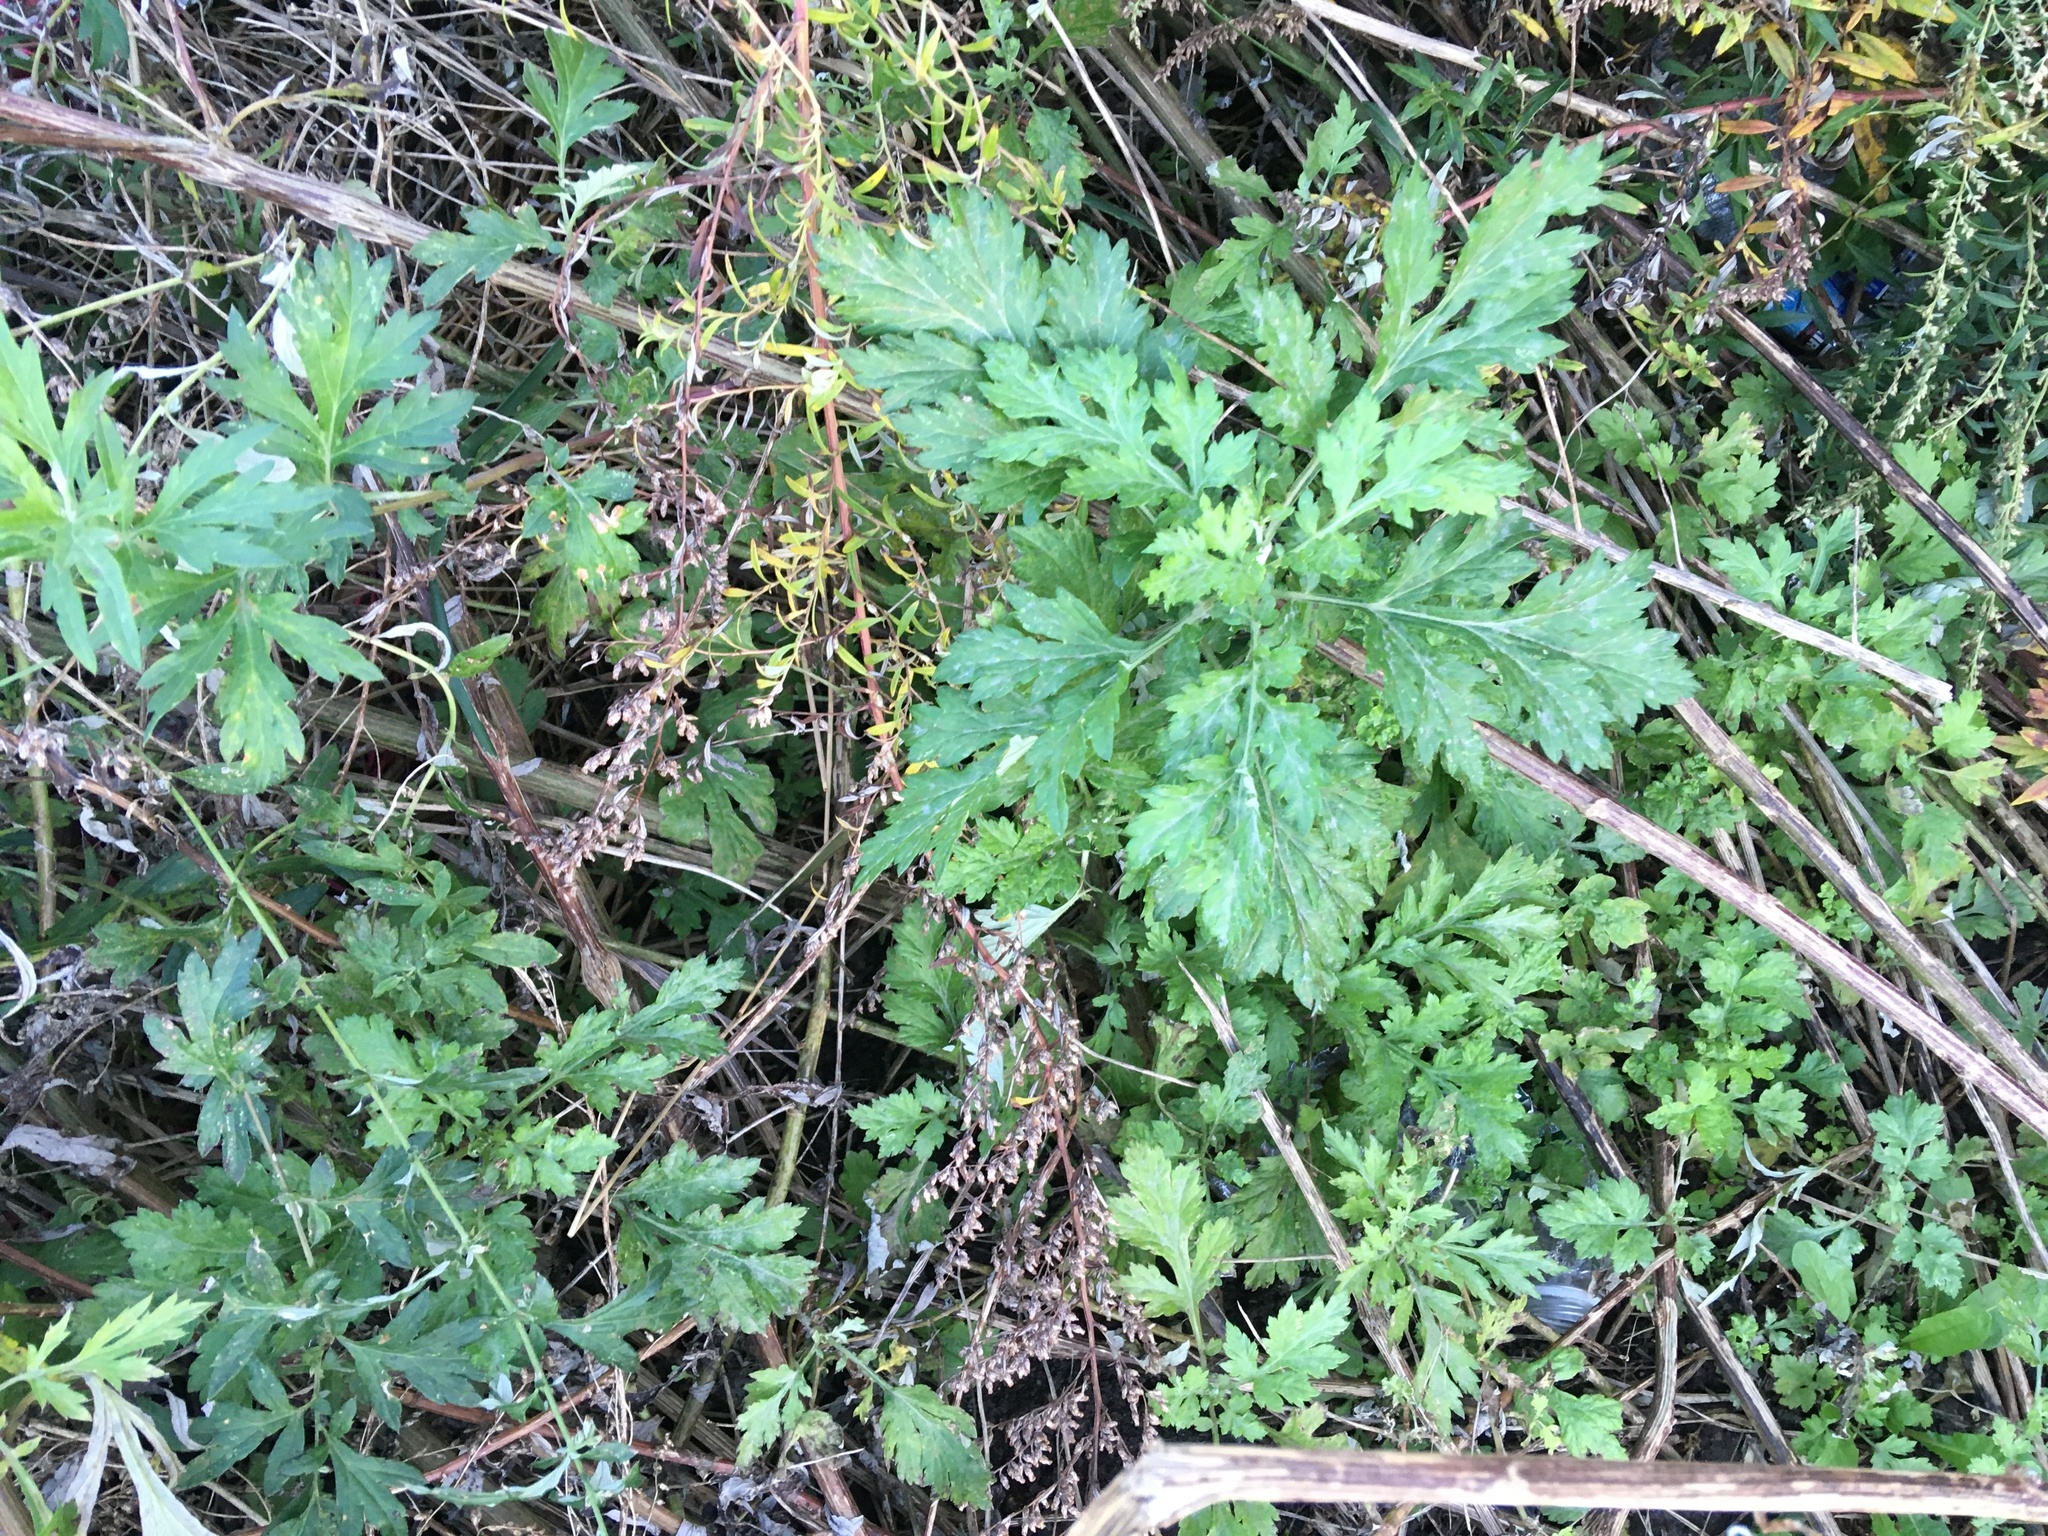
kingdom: Plantae
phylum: Tracheophyta
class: Magnoliopsida
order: Asterales
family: Asteraceae
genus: Artemisia
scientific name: Artemisia vulgaris
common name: Mugwort
